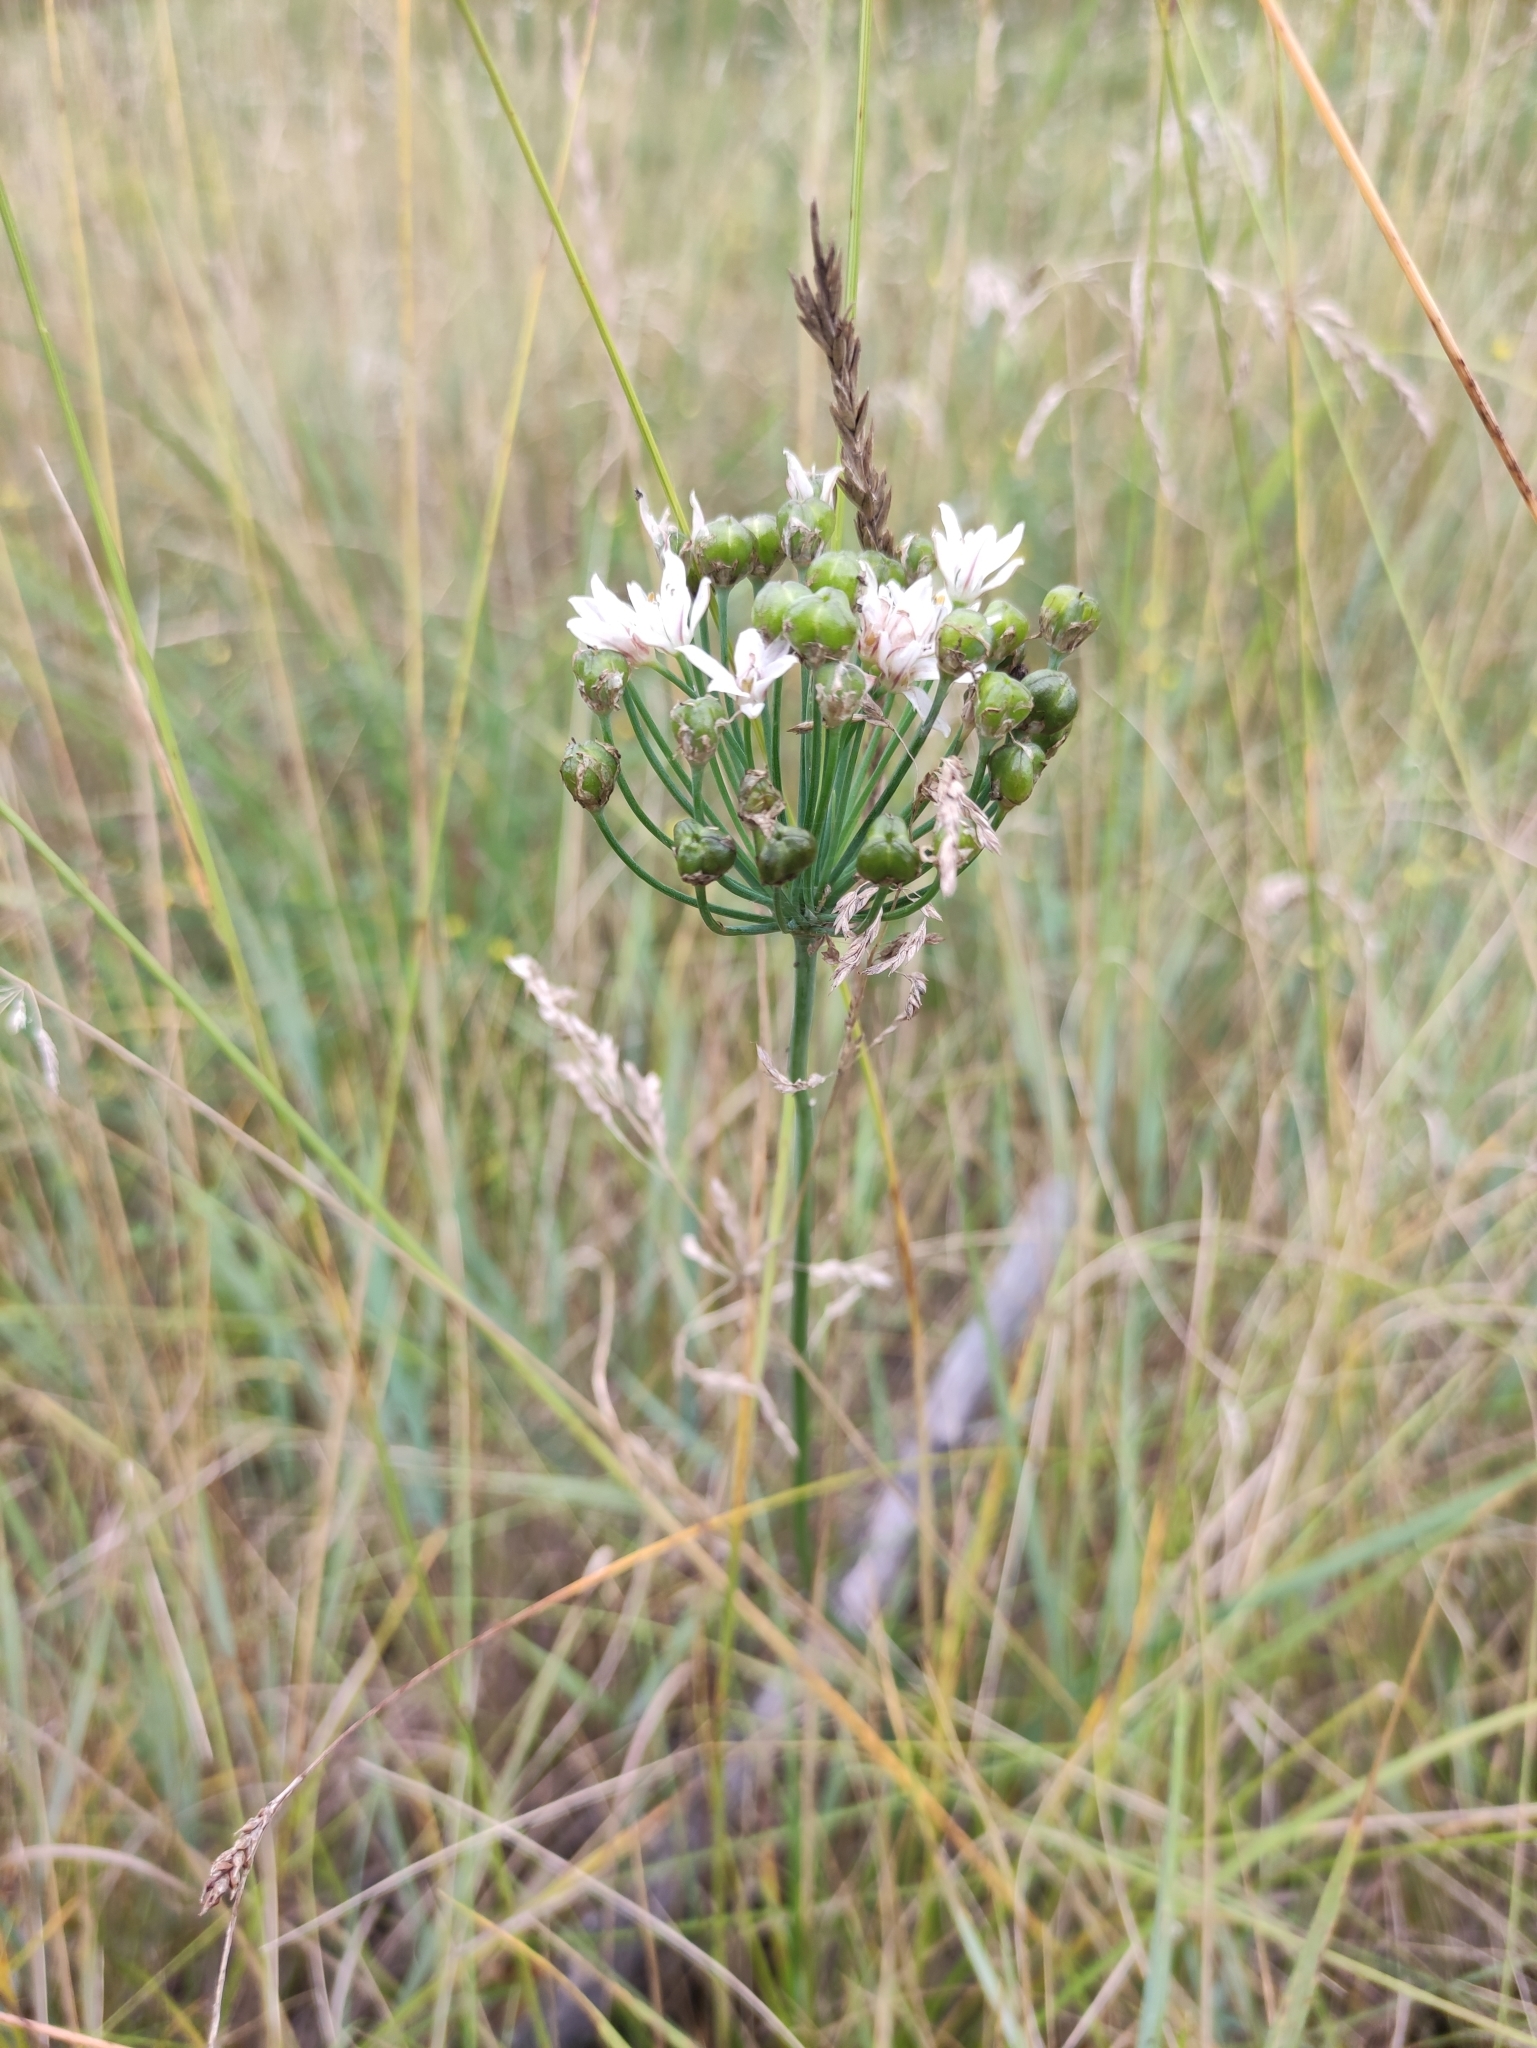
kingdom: Plantae
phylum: Tracheophyta
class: Liliopsida
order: Asparagales
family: Amaryllidaceae
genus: Allium
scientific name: Allium ramosum
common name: Fragrant garlic
